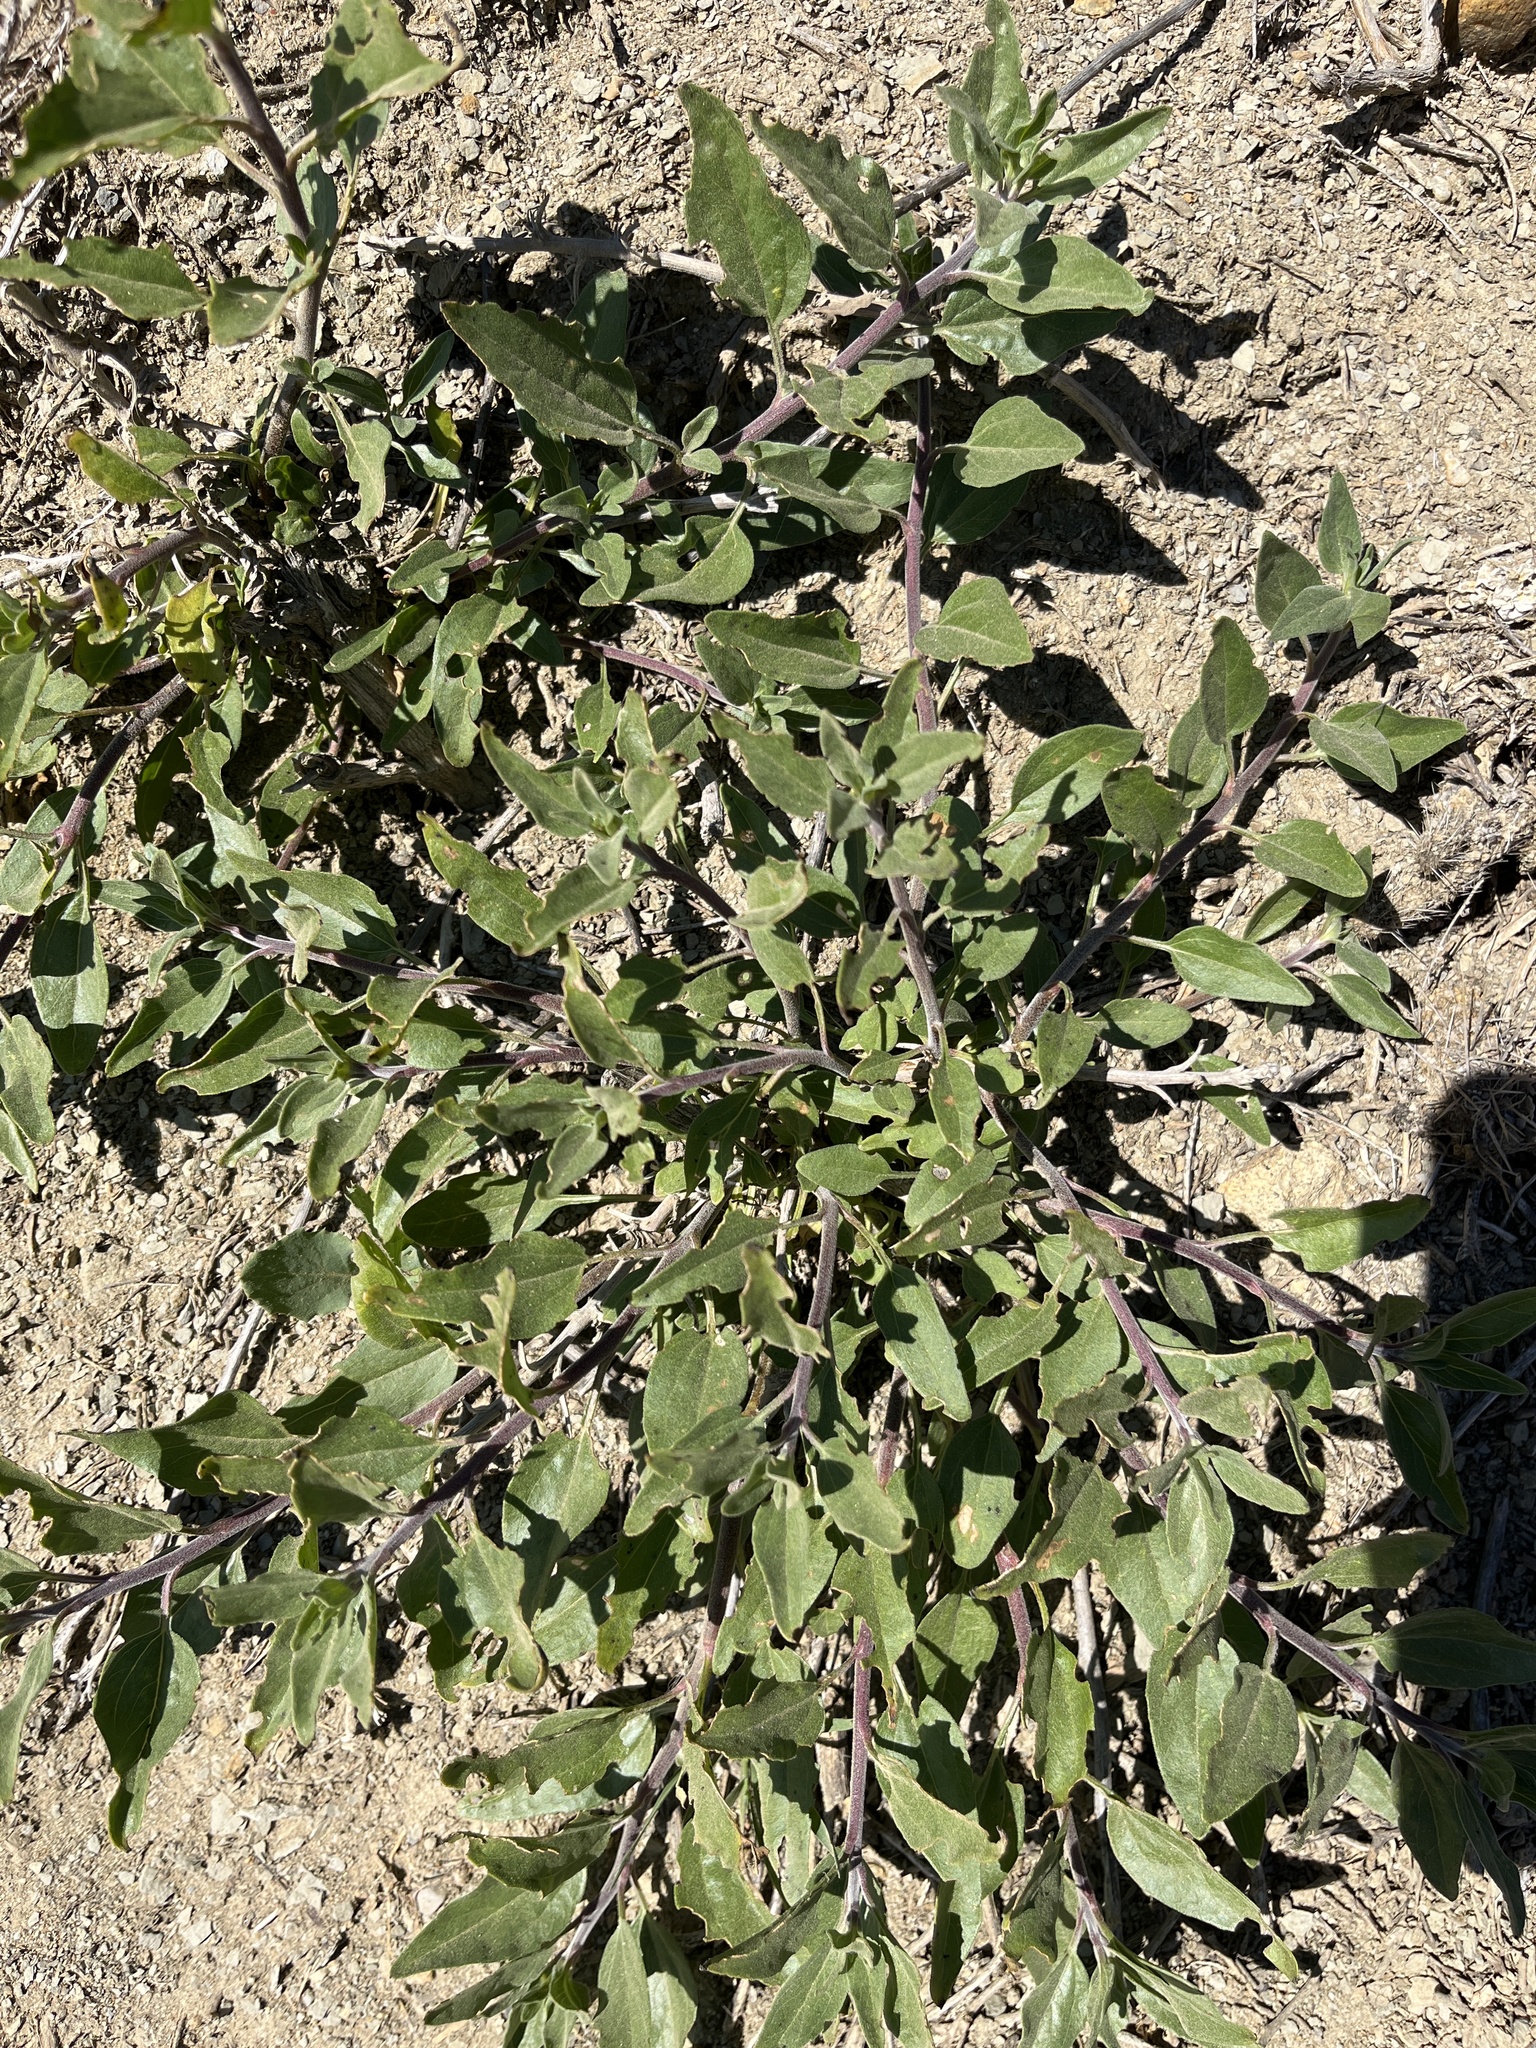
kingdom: Plantae
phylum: Tracheophyta
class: Magnoliopsida
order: Asterales
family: Asteraceae
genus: Encelia
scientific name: Encelia californica
